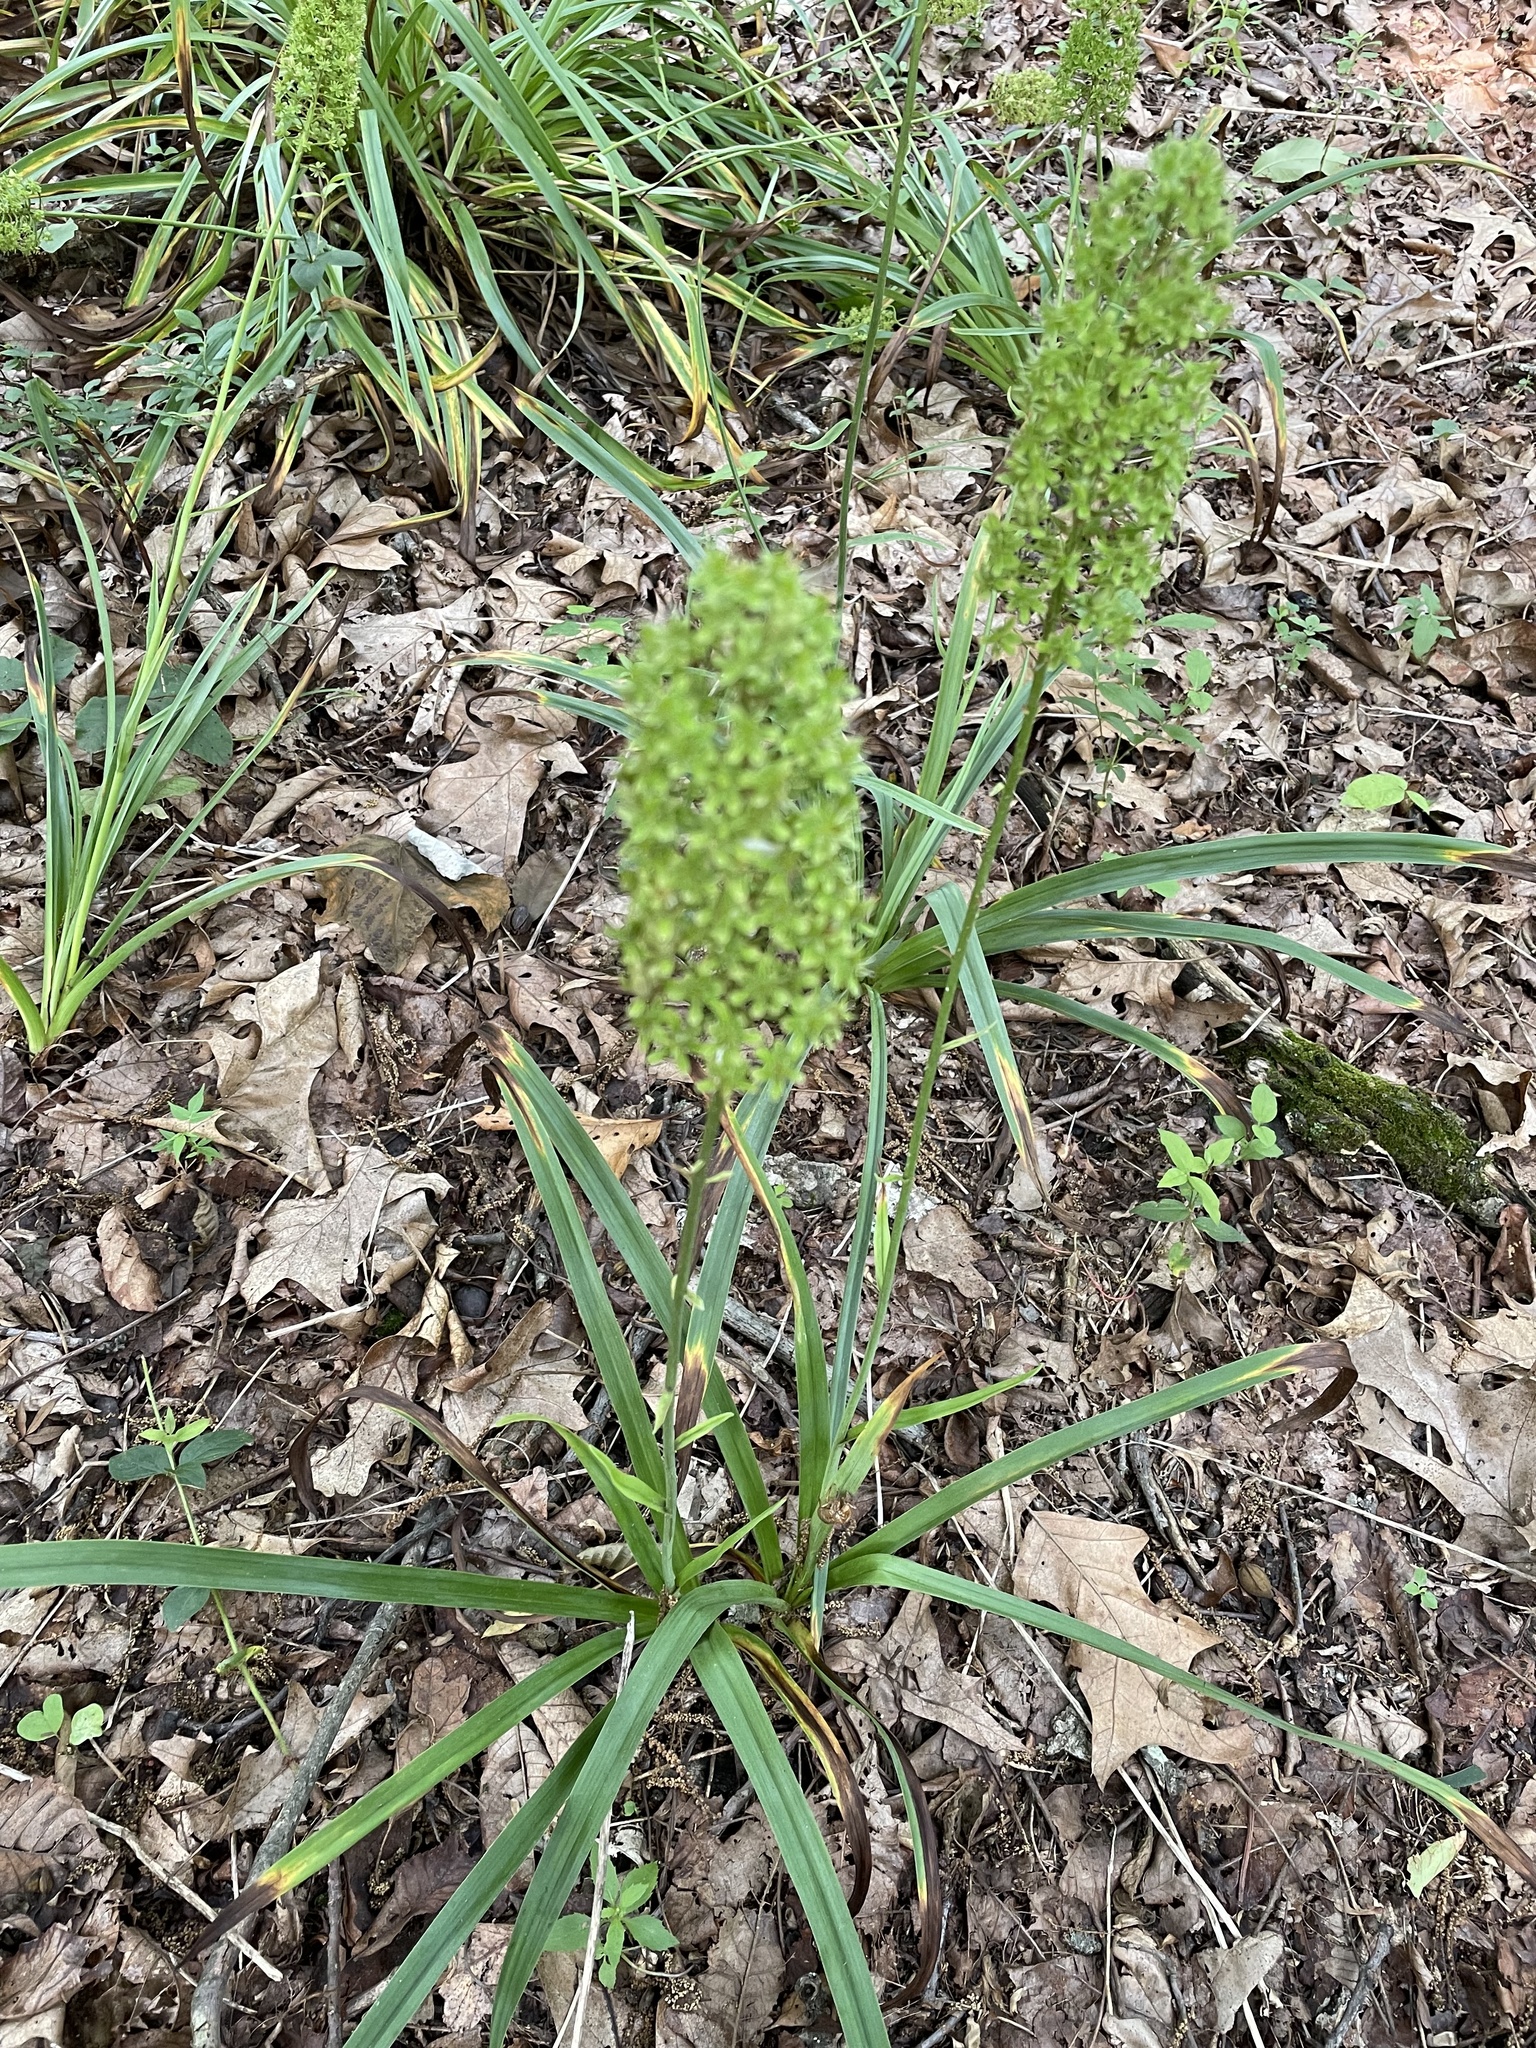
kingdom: Plantae
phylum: Tracheophyta
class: Liliopsida
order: Liliales
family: Melanthiaceae
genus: Amianthium
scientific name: Amianthium muscitoxicum
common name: Fly-poison
